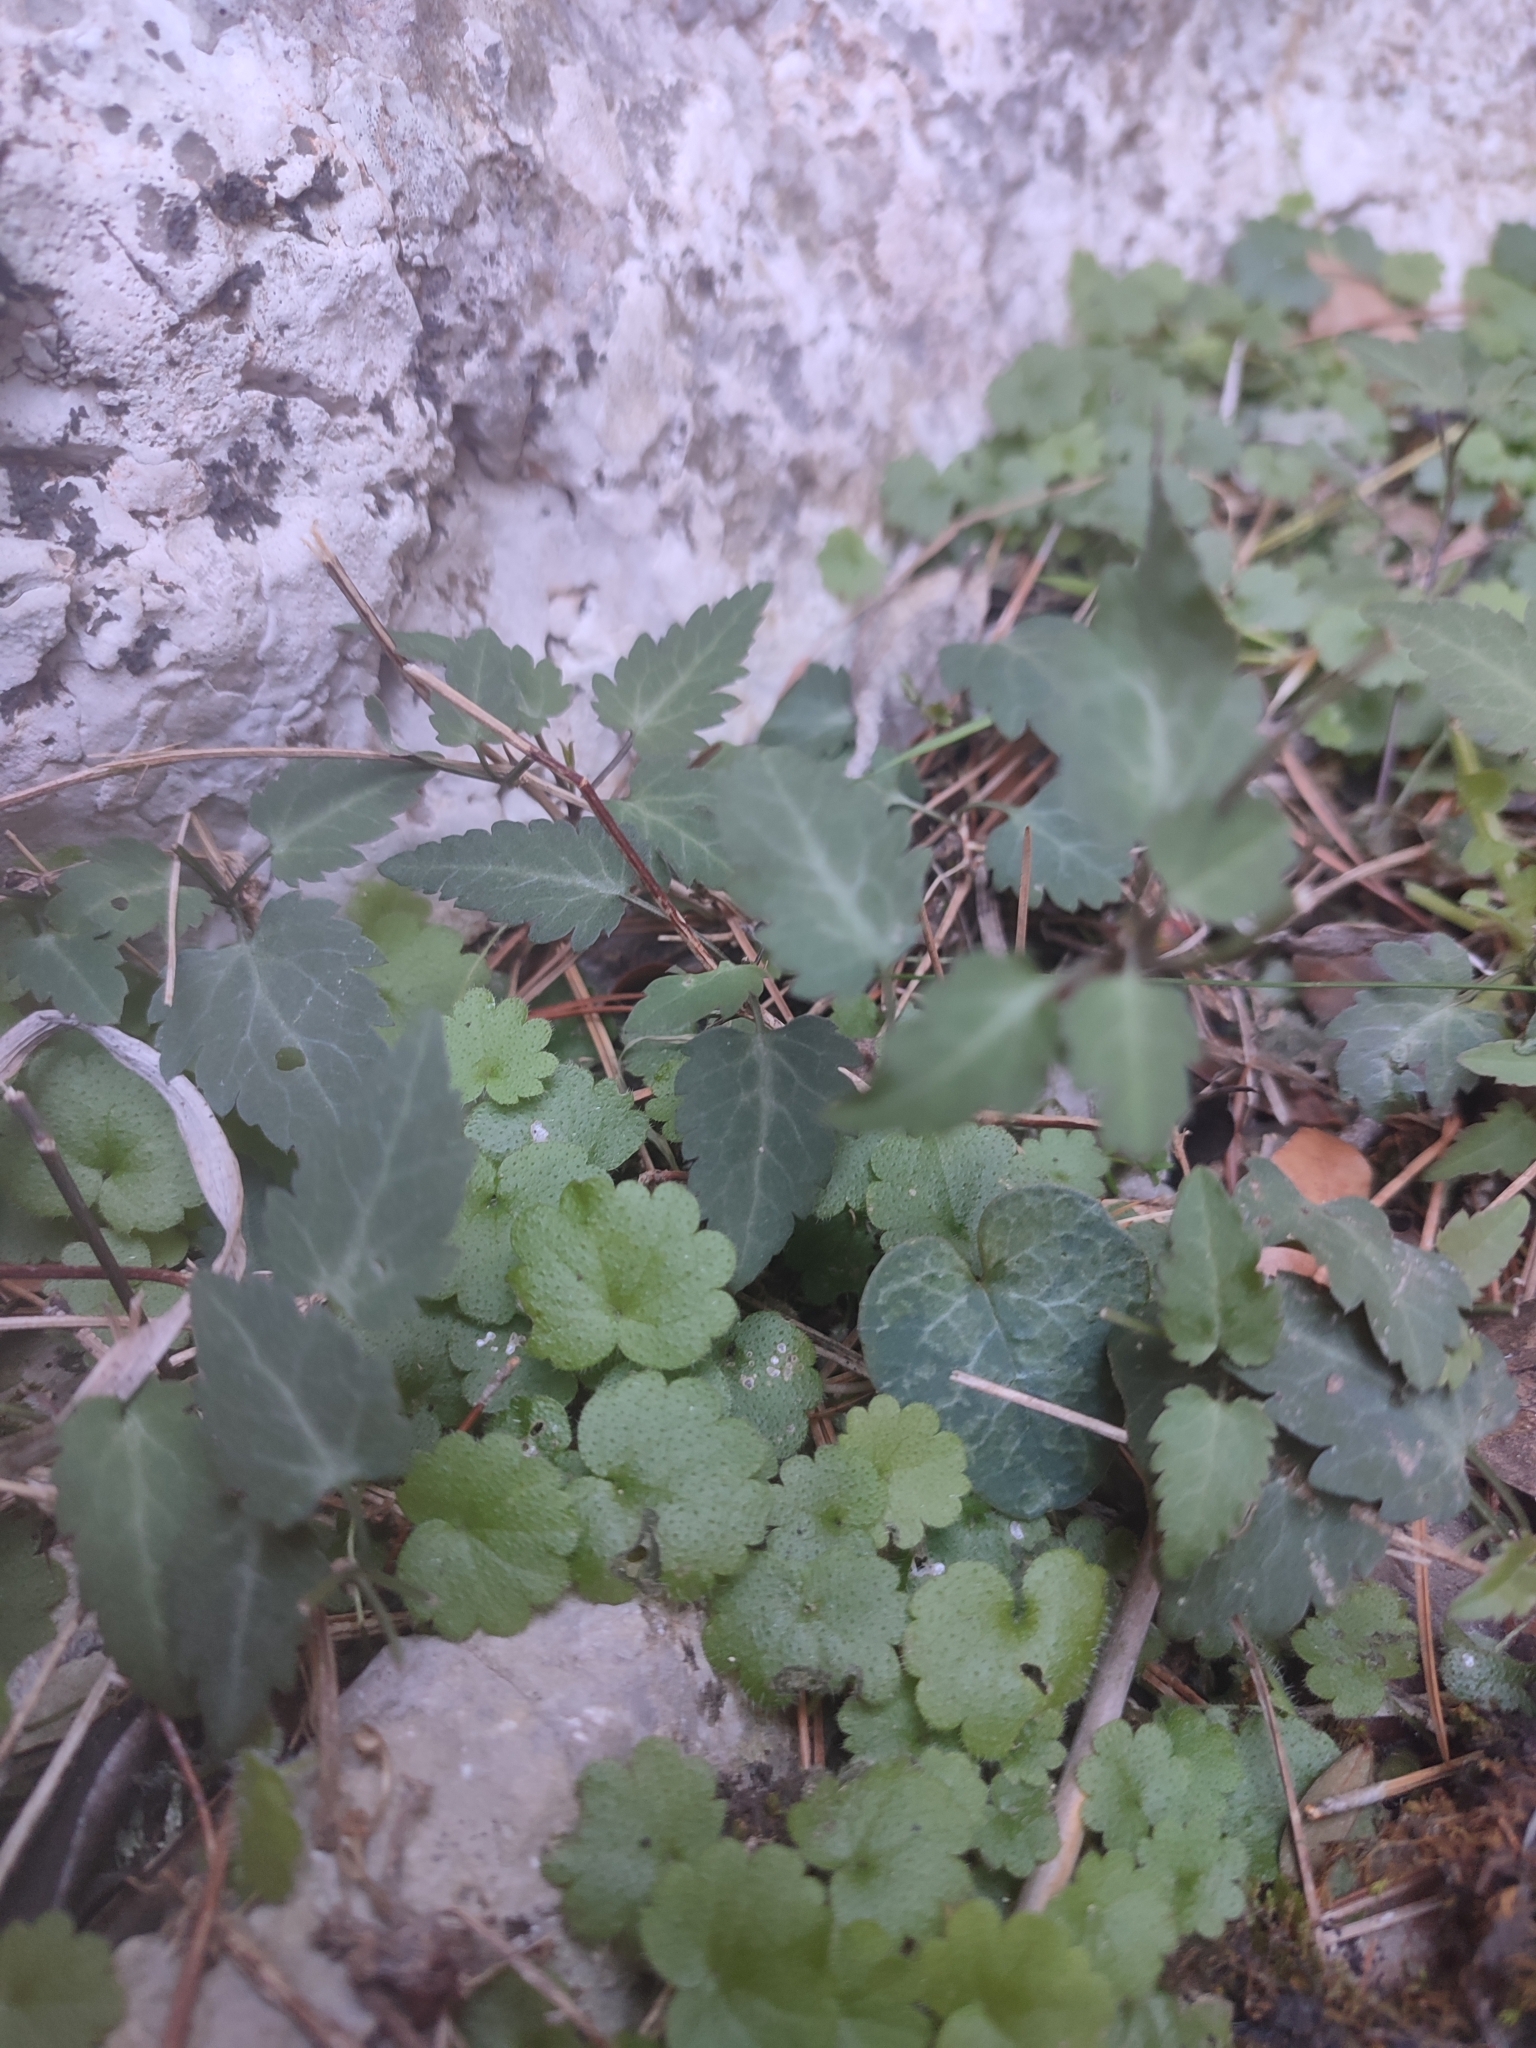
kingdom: Plantae
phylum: Tracheophyta
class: Magnoliopsida
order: Ranunculales
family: Ranunculaceae
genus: Clematis
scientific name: Clematis cirrhosa
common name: Early virgin's-bower
